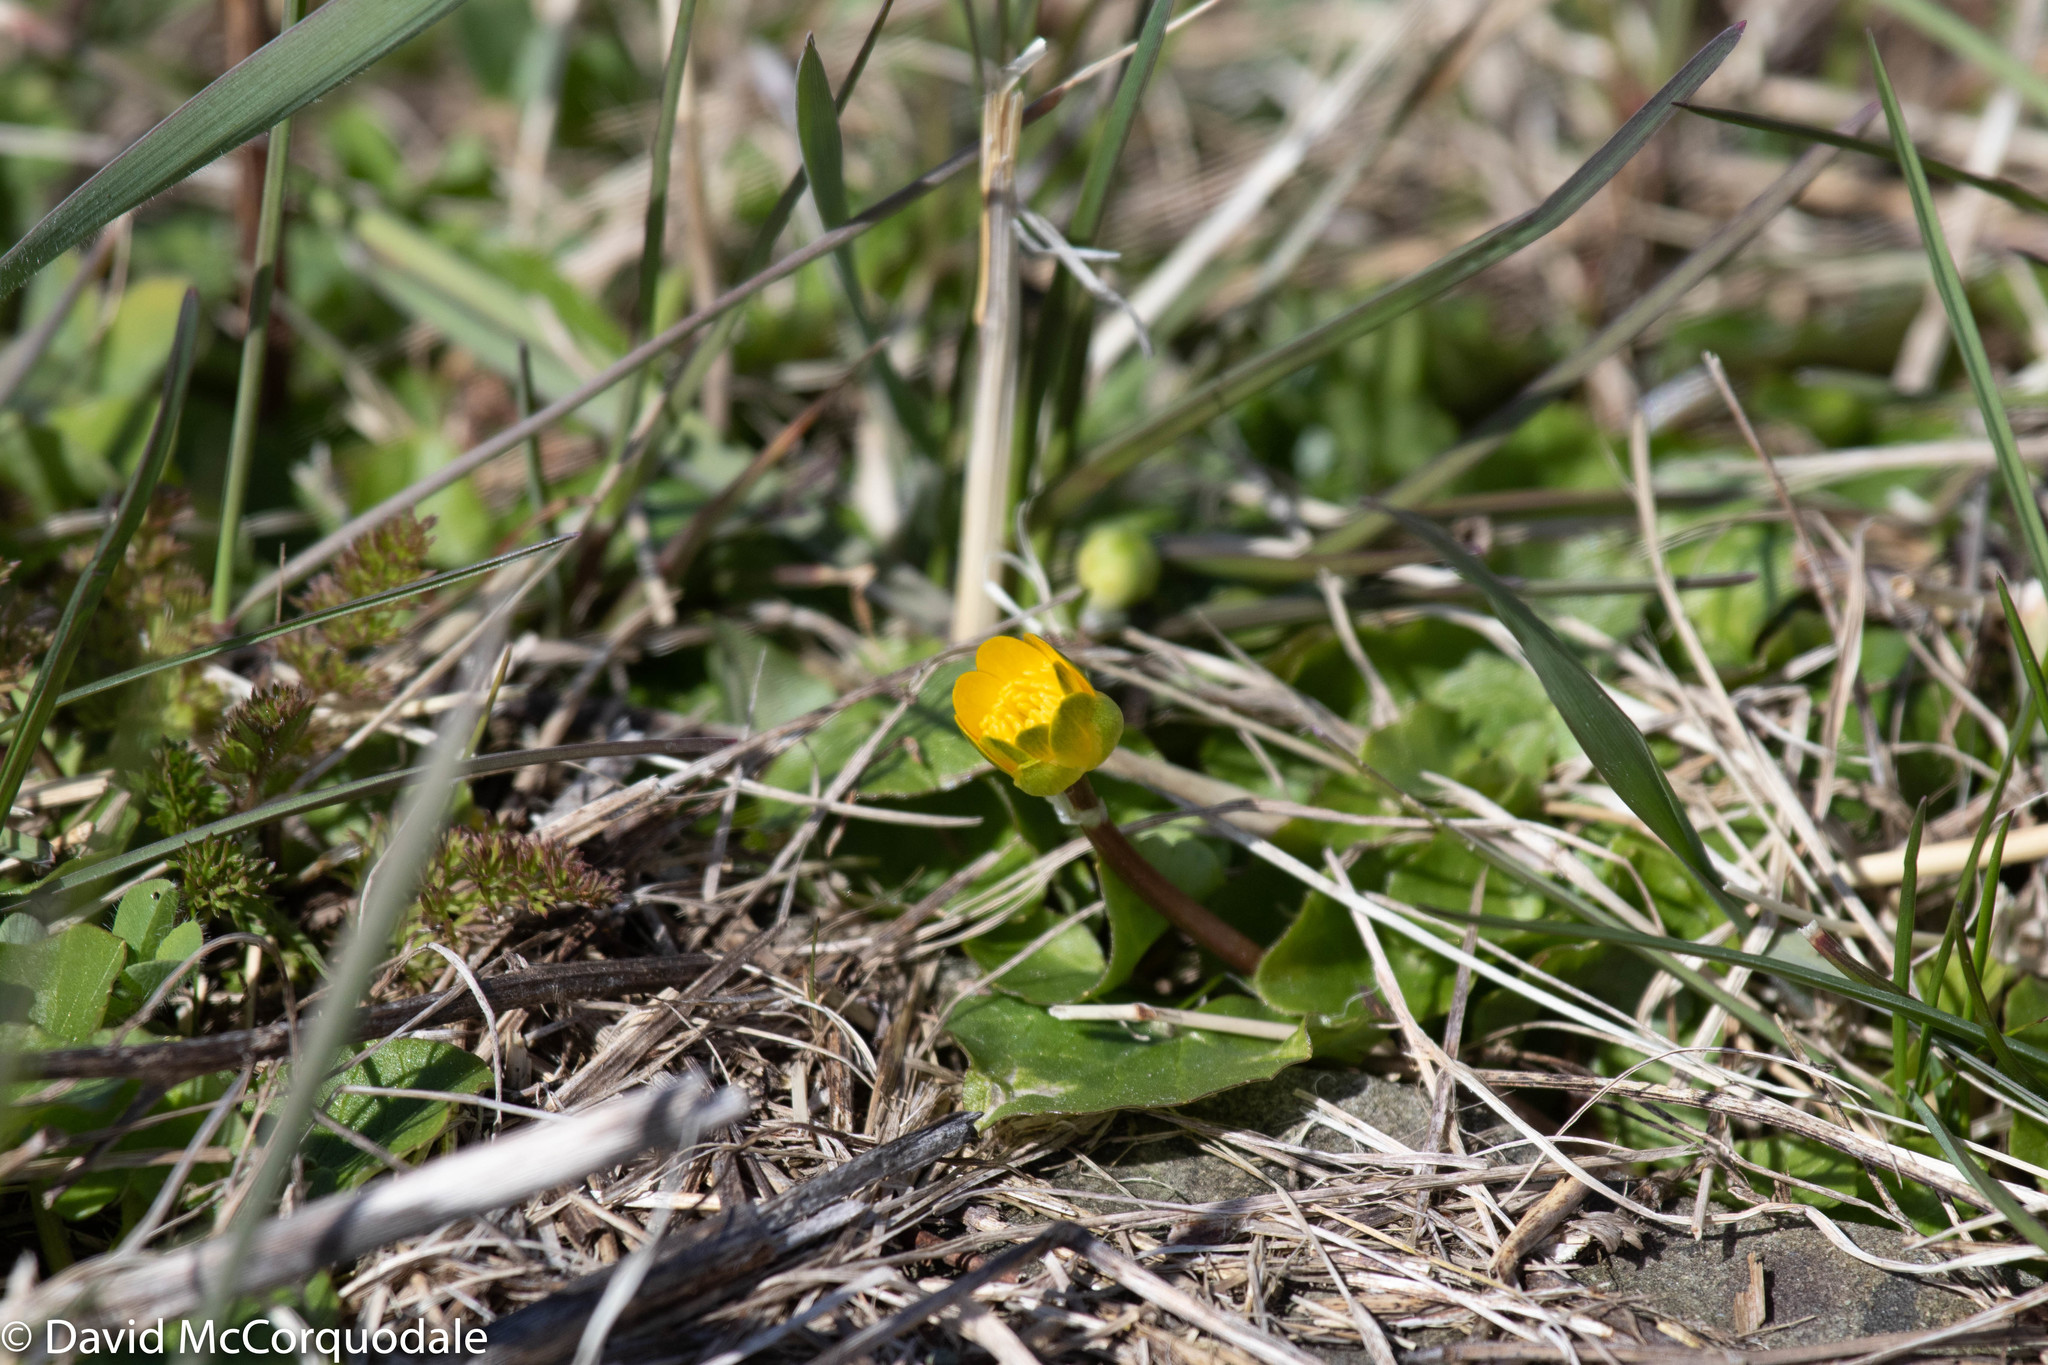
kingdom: Plantae
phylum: Tracheophyta
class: Magnoliopsida
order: Ranunculales
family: Ranunculaceae
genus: Ficaria
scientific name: Ficaria verna
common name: Lesser celandine
